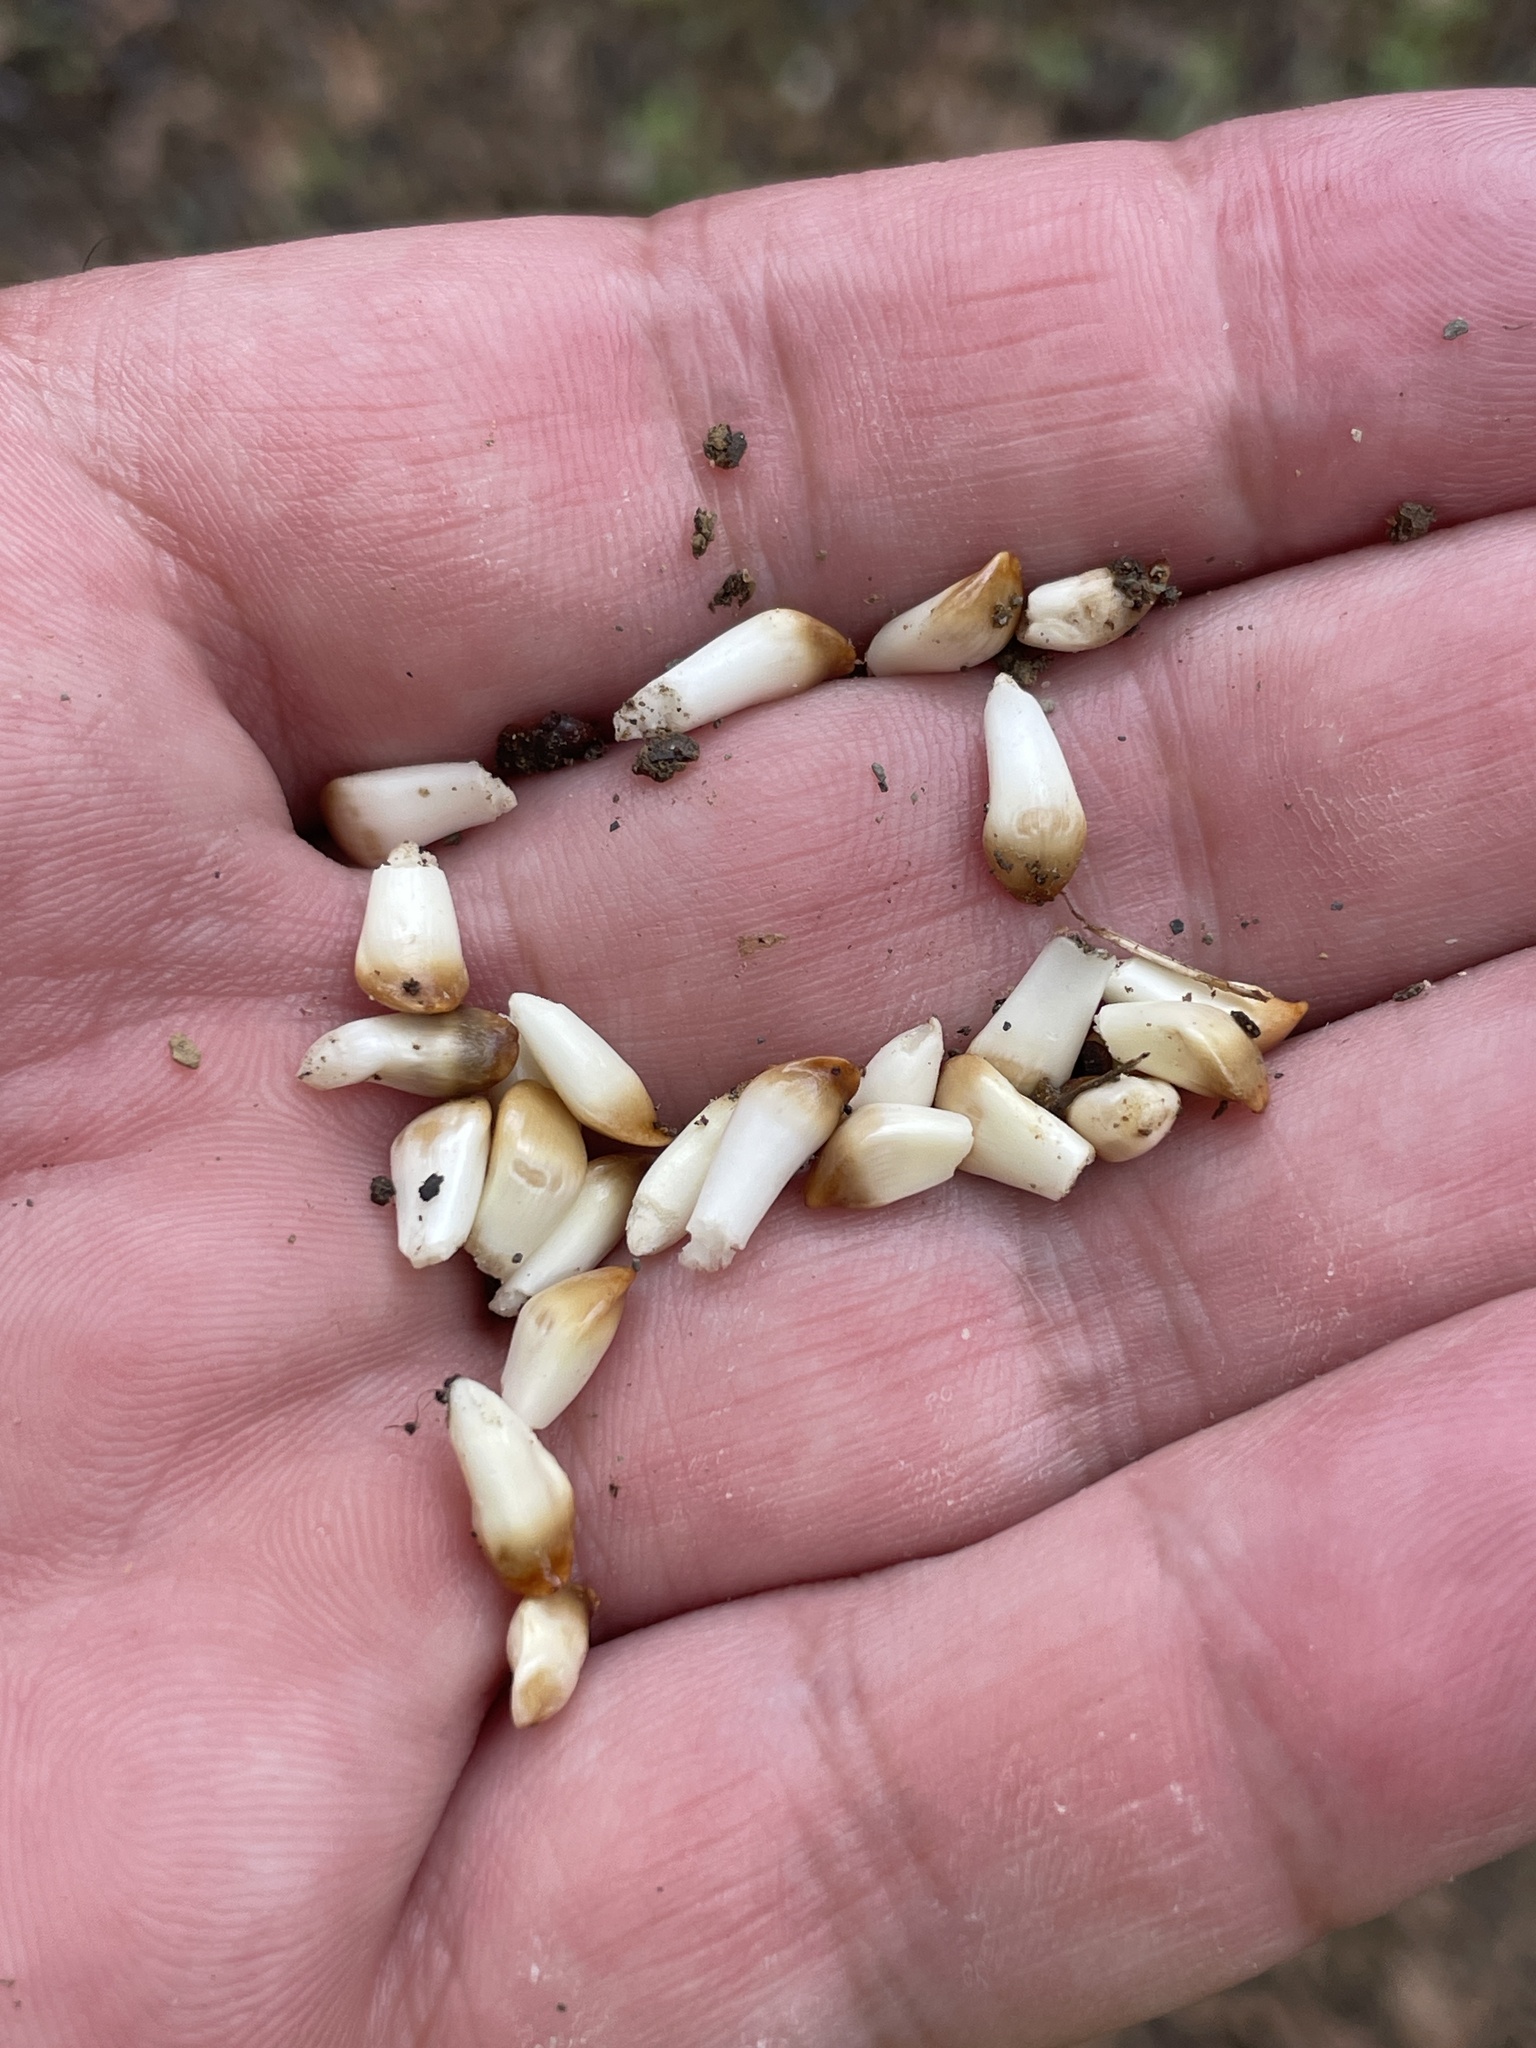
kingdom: Animalia
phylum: Arthropoda
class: Insecta
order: Hymenoptera
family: Cynipidae
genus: Callirhytis
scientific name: Callirhytis
